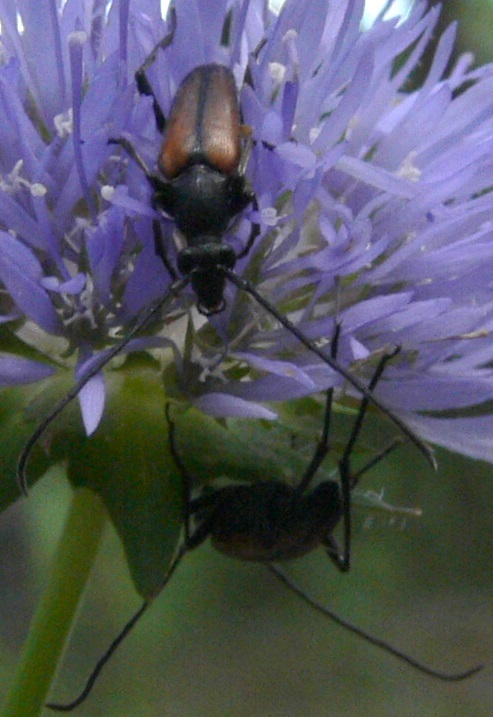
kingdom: Animalia
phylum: Arthropoda
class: Insecta
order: Coleoptera
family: Cerambycidae
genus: Stenurella
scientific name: Stenurella melanura
